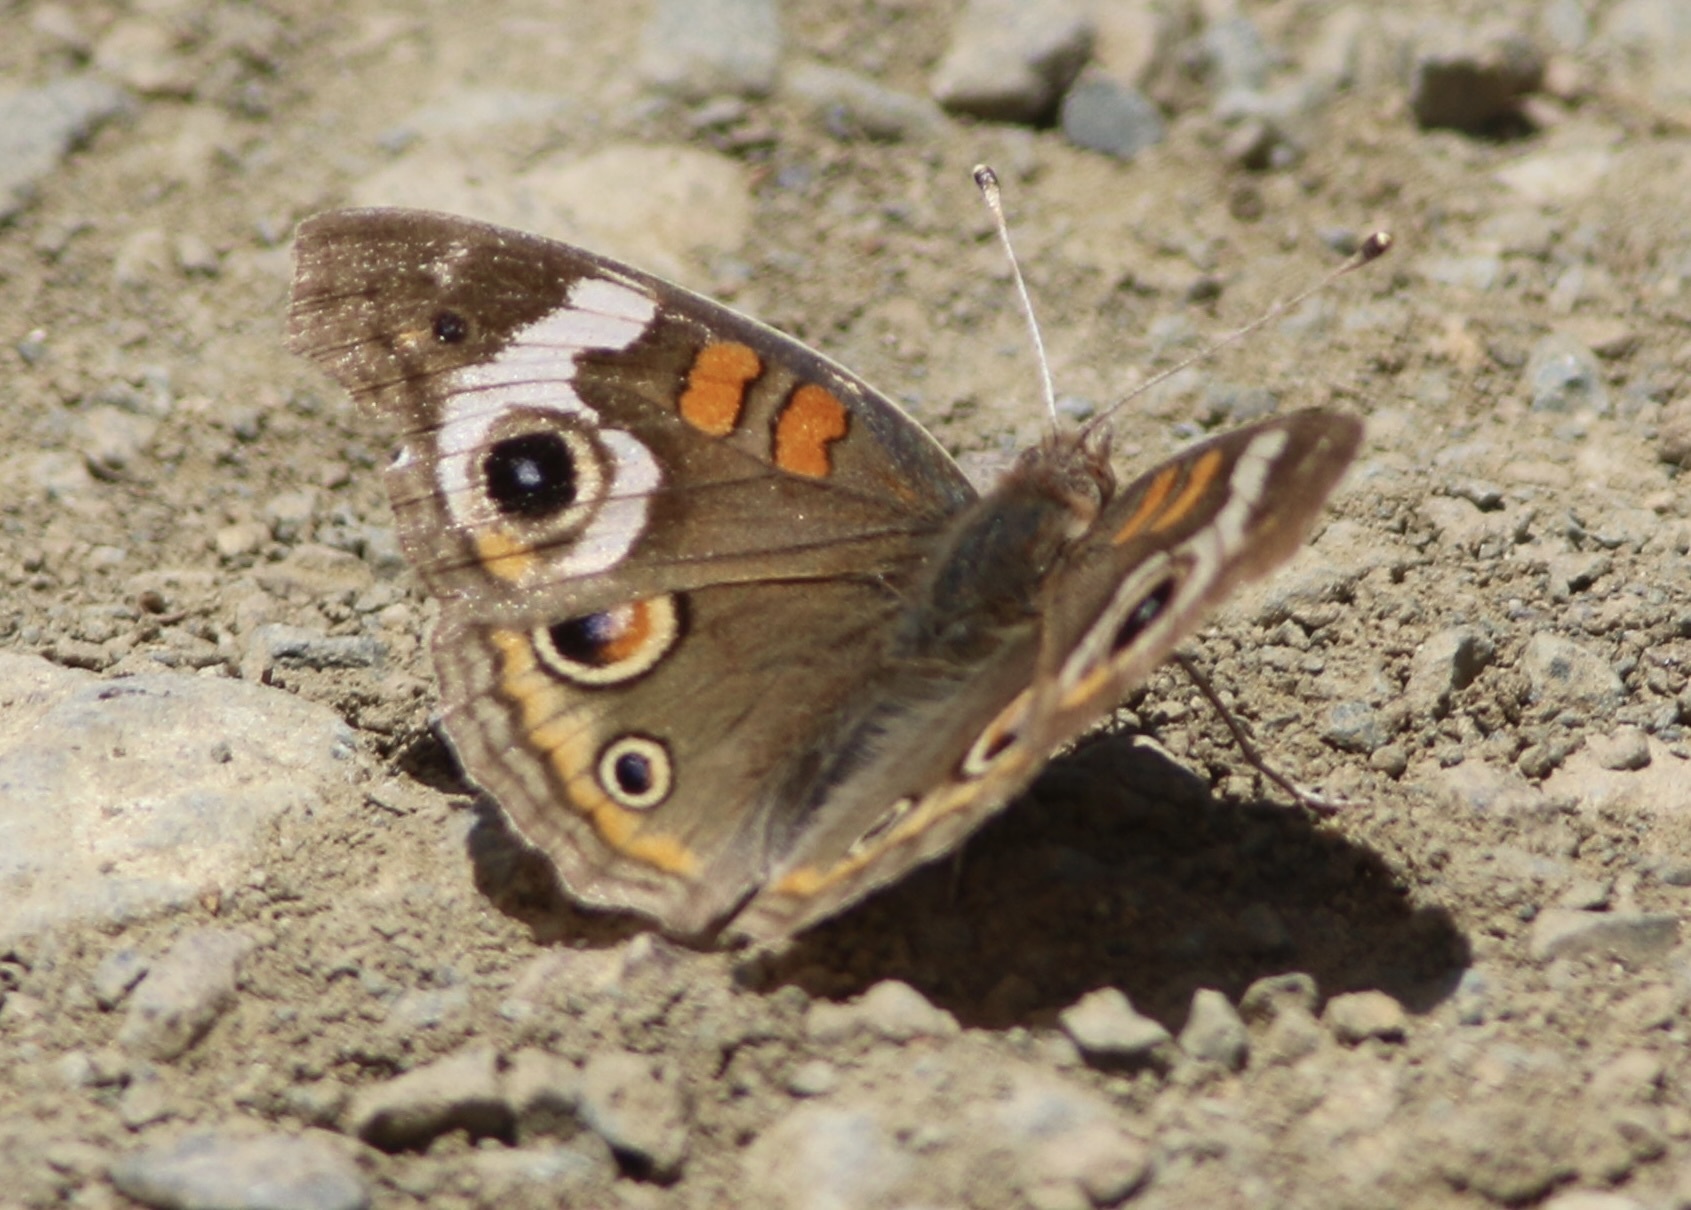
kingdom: Animalia
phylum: Arthropoda
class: Insecta
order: Lepidoptera
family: Nymphalidae
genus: Junonia
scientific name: Junonia grisea
